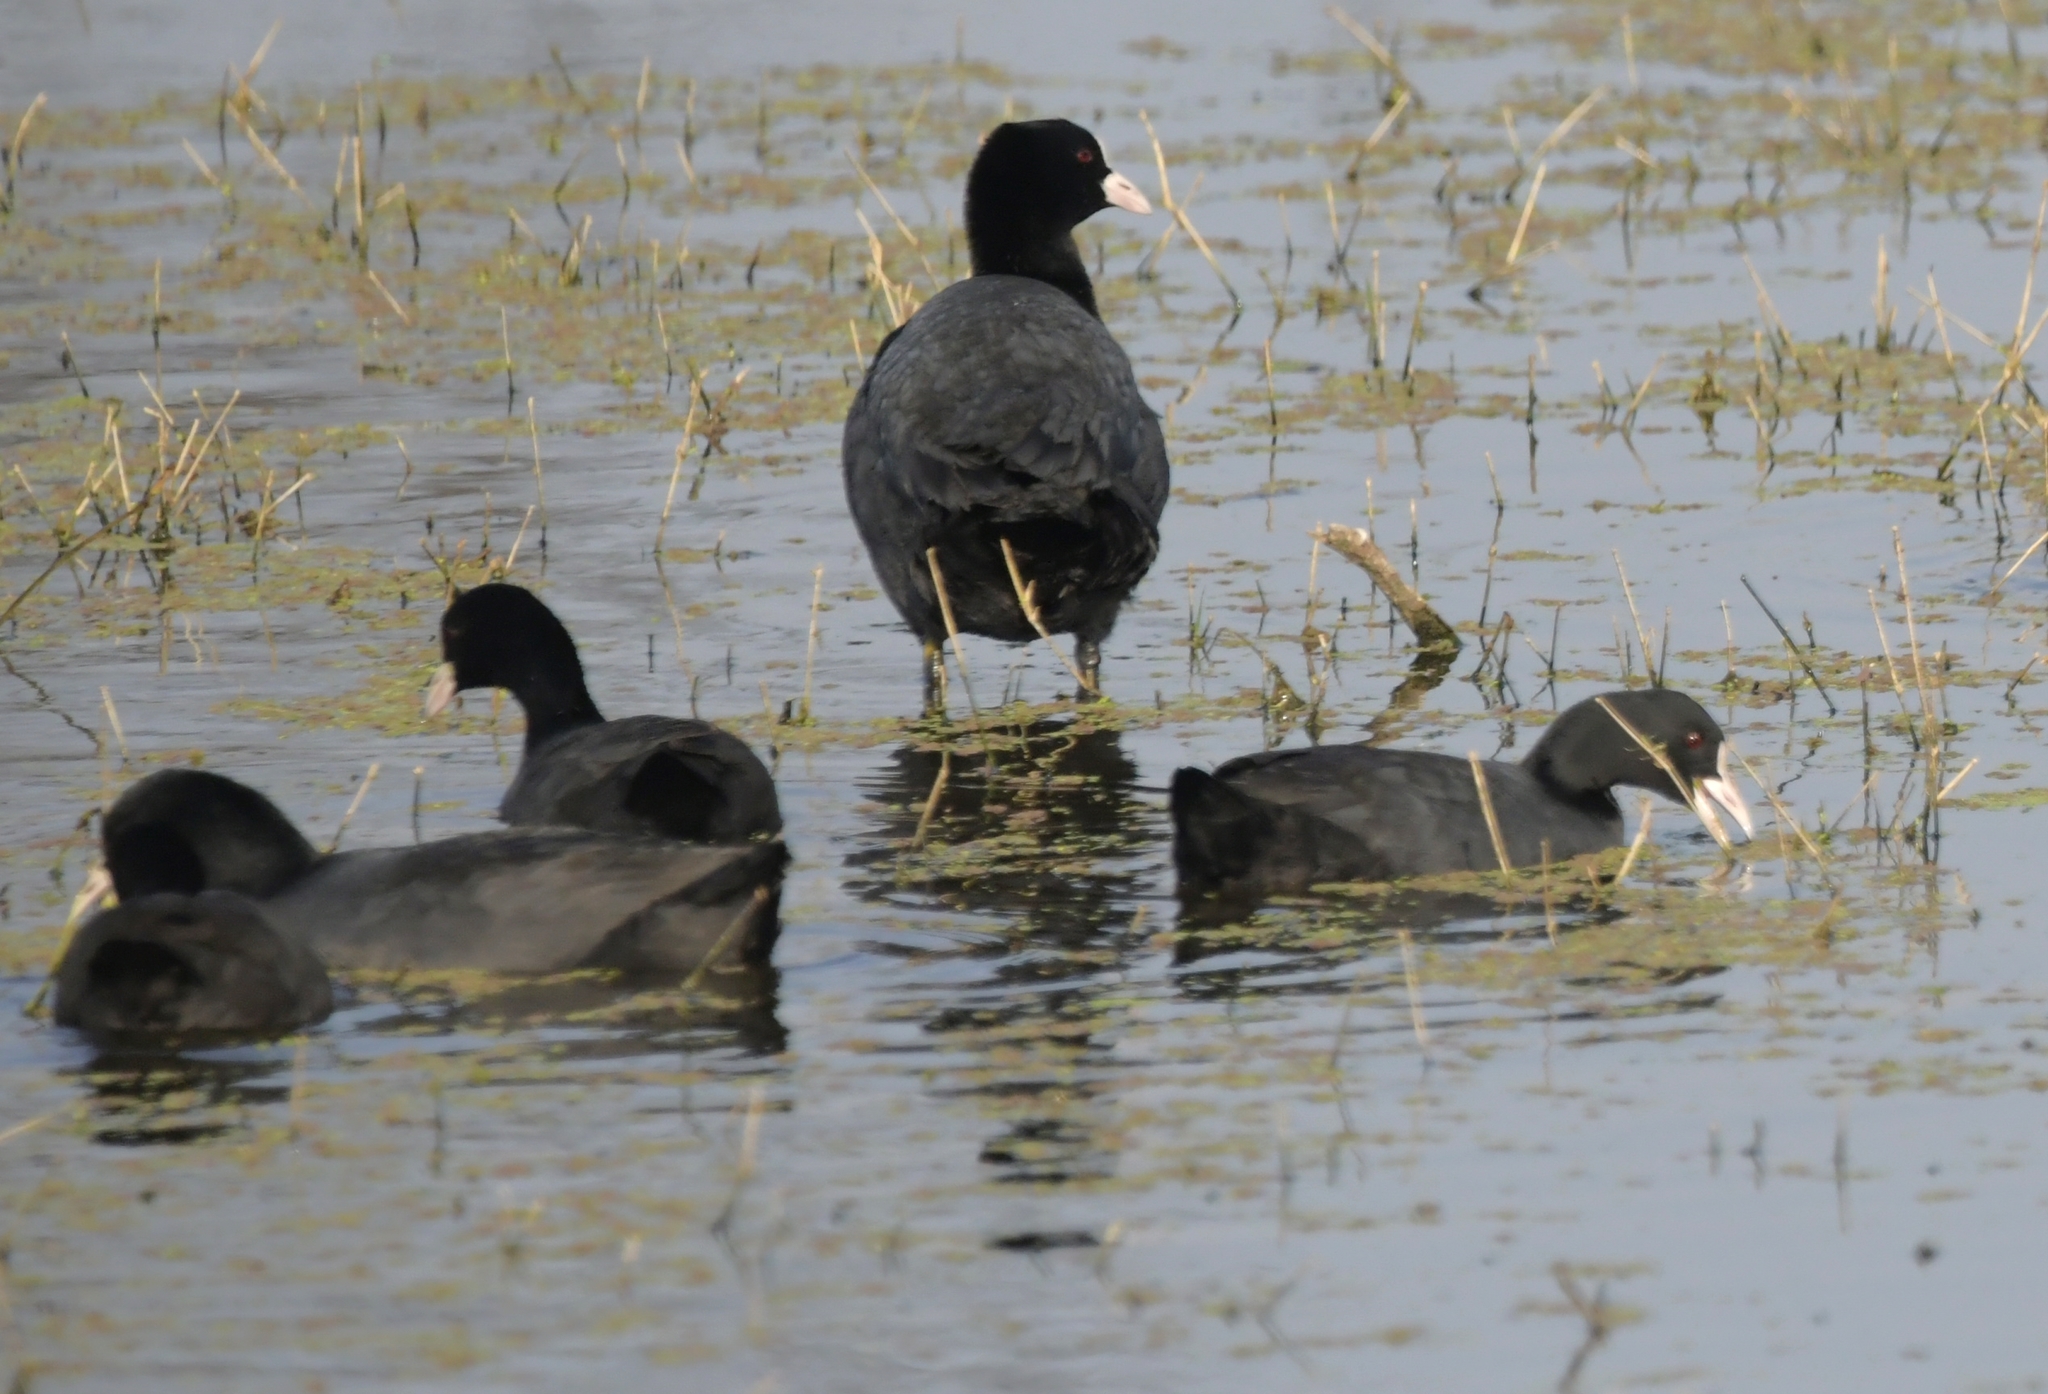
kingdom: Animalia
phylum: Chordata
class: Aves
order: Gruiformes
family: Rallidae
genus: Fulica
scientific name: Fulica atra
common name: Eurasian coot
